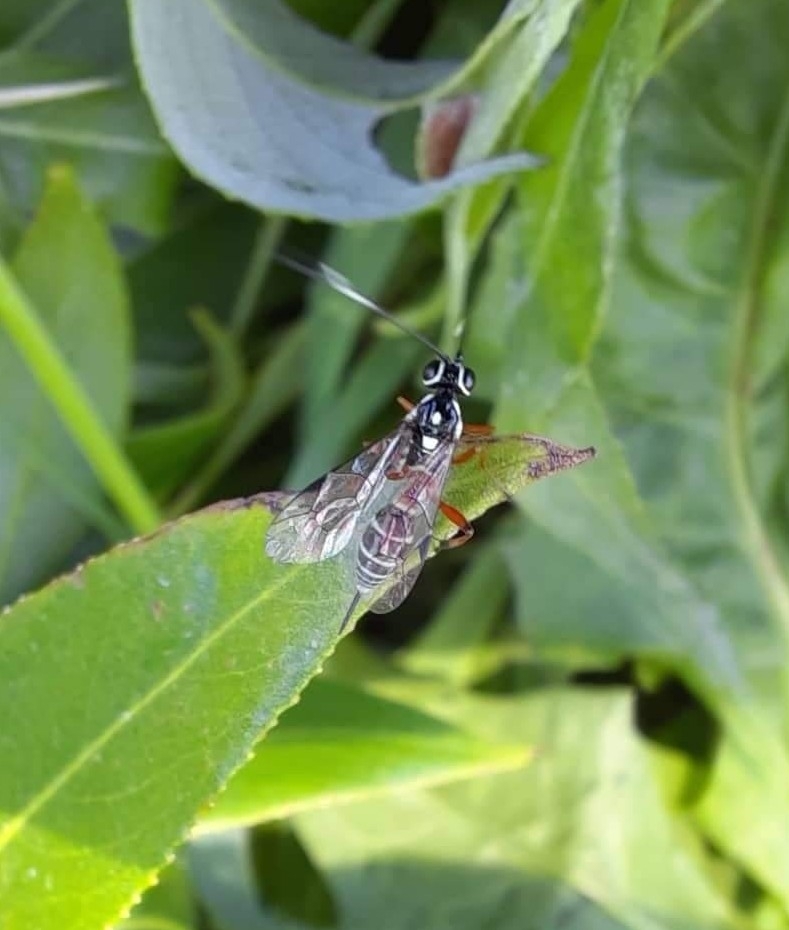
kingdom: Animalia
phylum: Arthropoda
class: Insecta
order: Hymenoptera
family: Ichneumonidae
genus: Glabridorsum
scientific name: Glabridorsum stokesii
